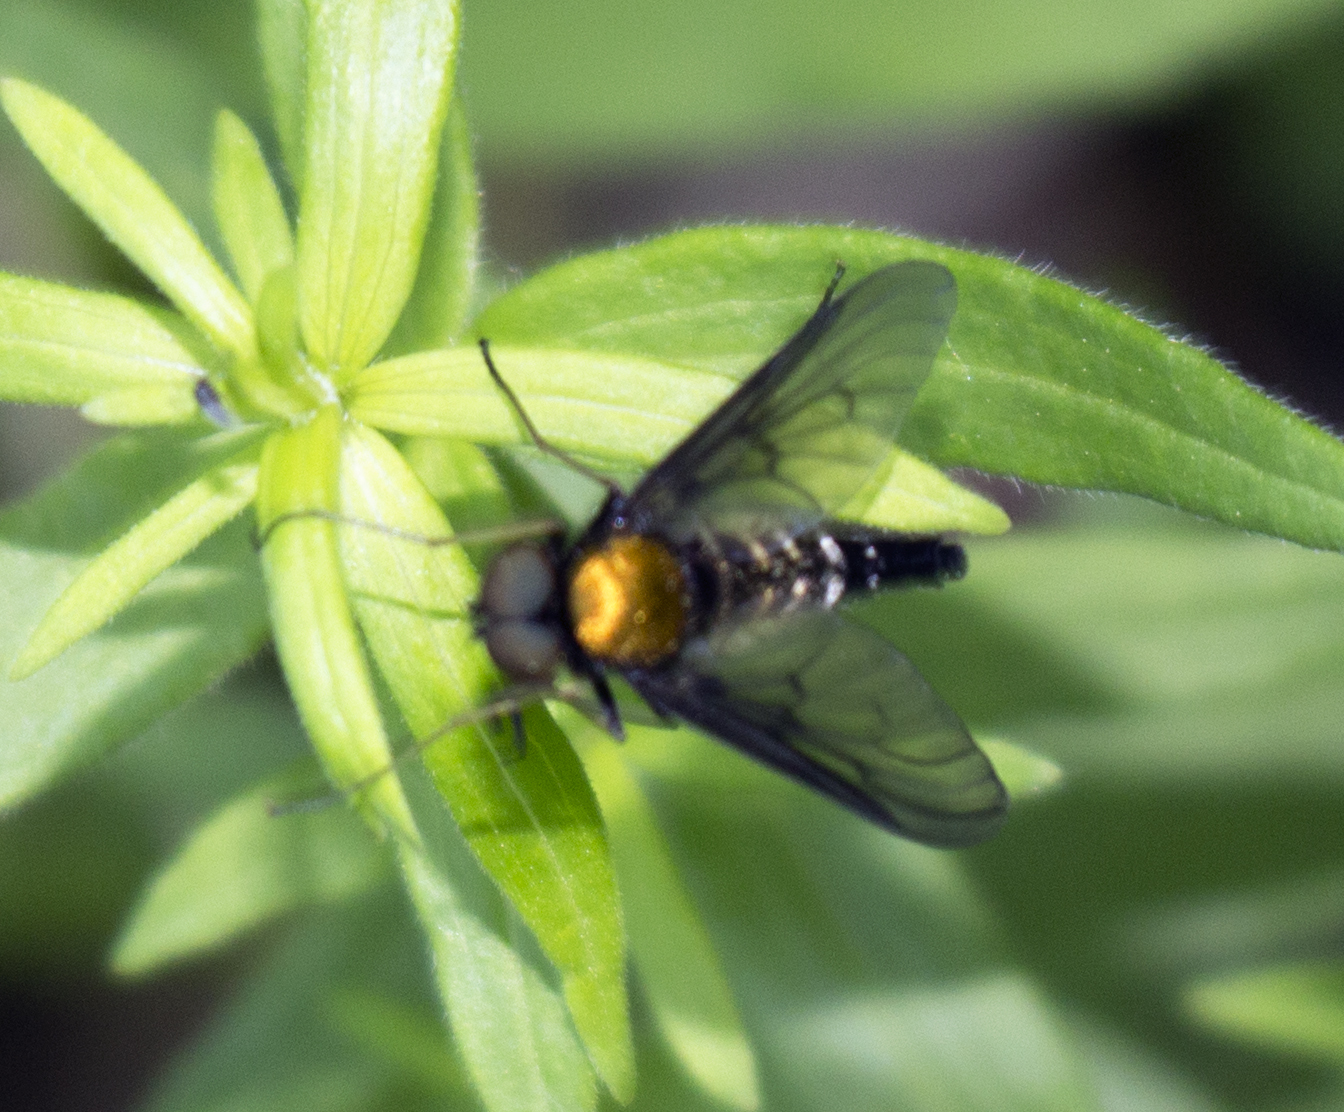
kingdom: Animalia
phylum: Arthropoda
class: Insecta
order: Diptera
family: Rhagionidae
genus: Chrysopilus
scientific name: Chrysopilus thoracicus
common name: Golden-backed snipe fly
